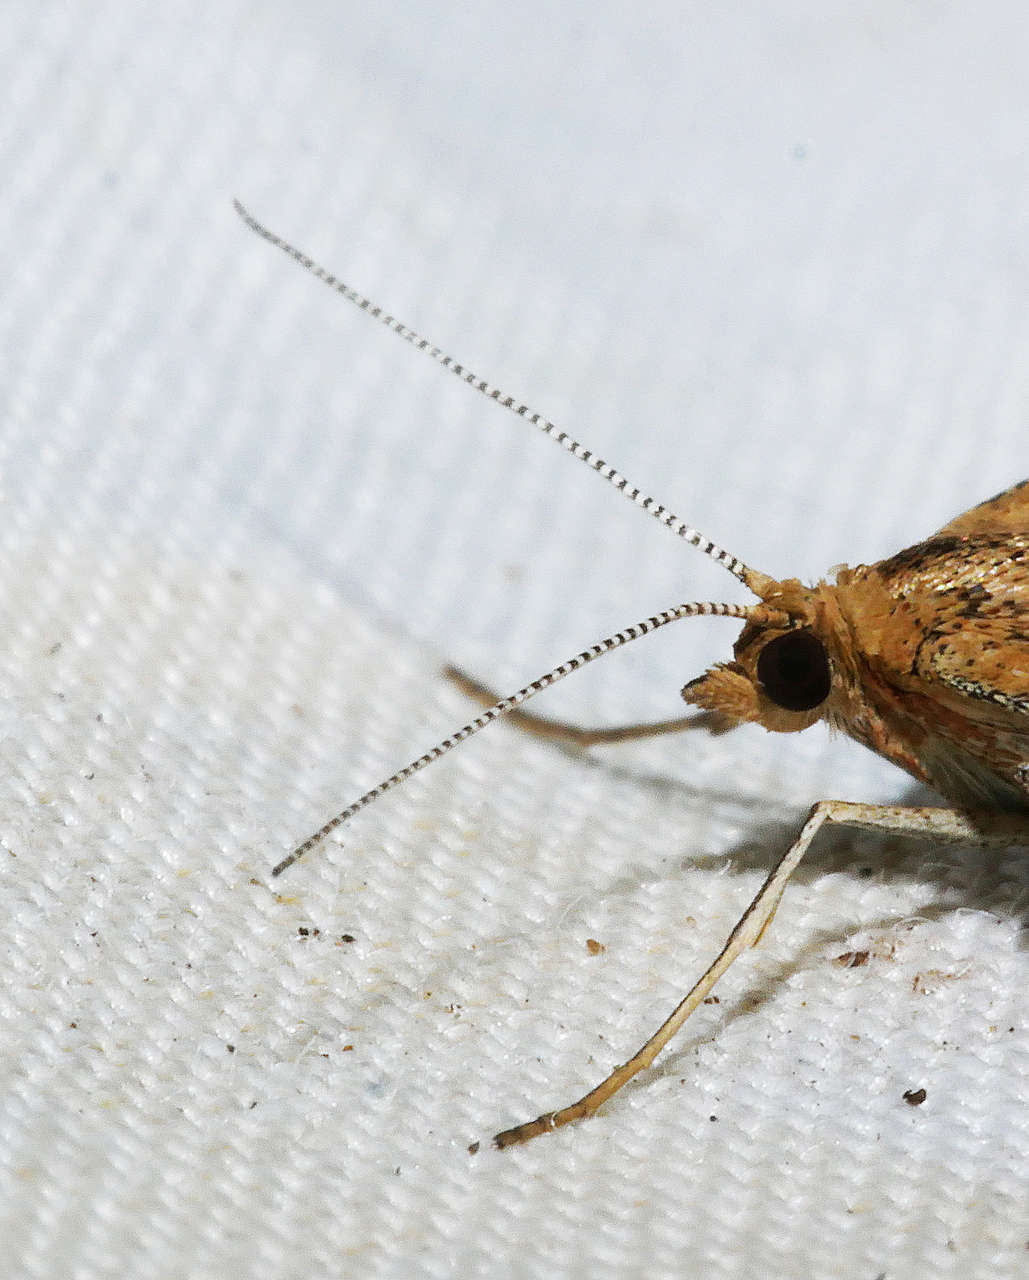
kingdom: Animalia
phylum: Arthropoda
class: Insecta
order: Lepidoptera
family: Geometridae
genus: Scopula
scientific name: Scopula rubraria
